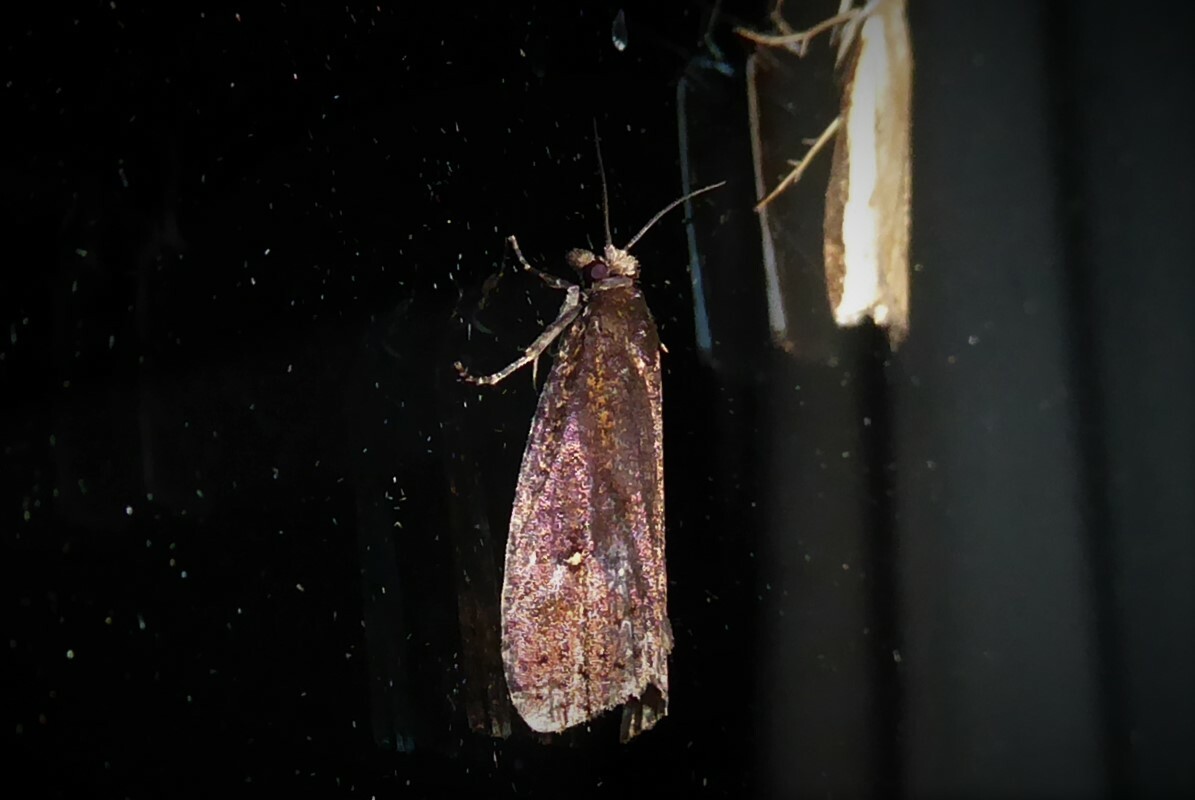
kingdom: Animalia
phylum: Arthropoda
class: Insecta
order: Lepidoptera
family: Tortricidae
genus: Cryptaspasma
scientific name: Cryptaspasma querula
